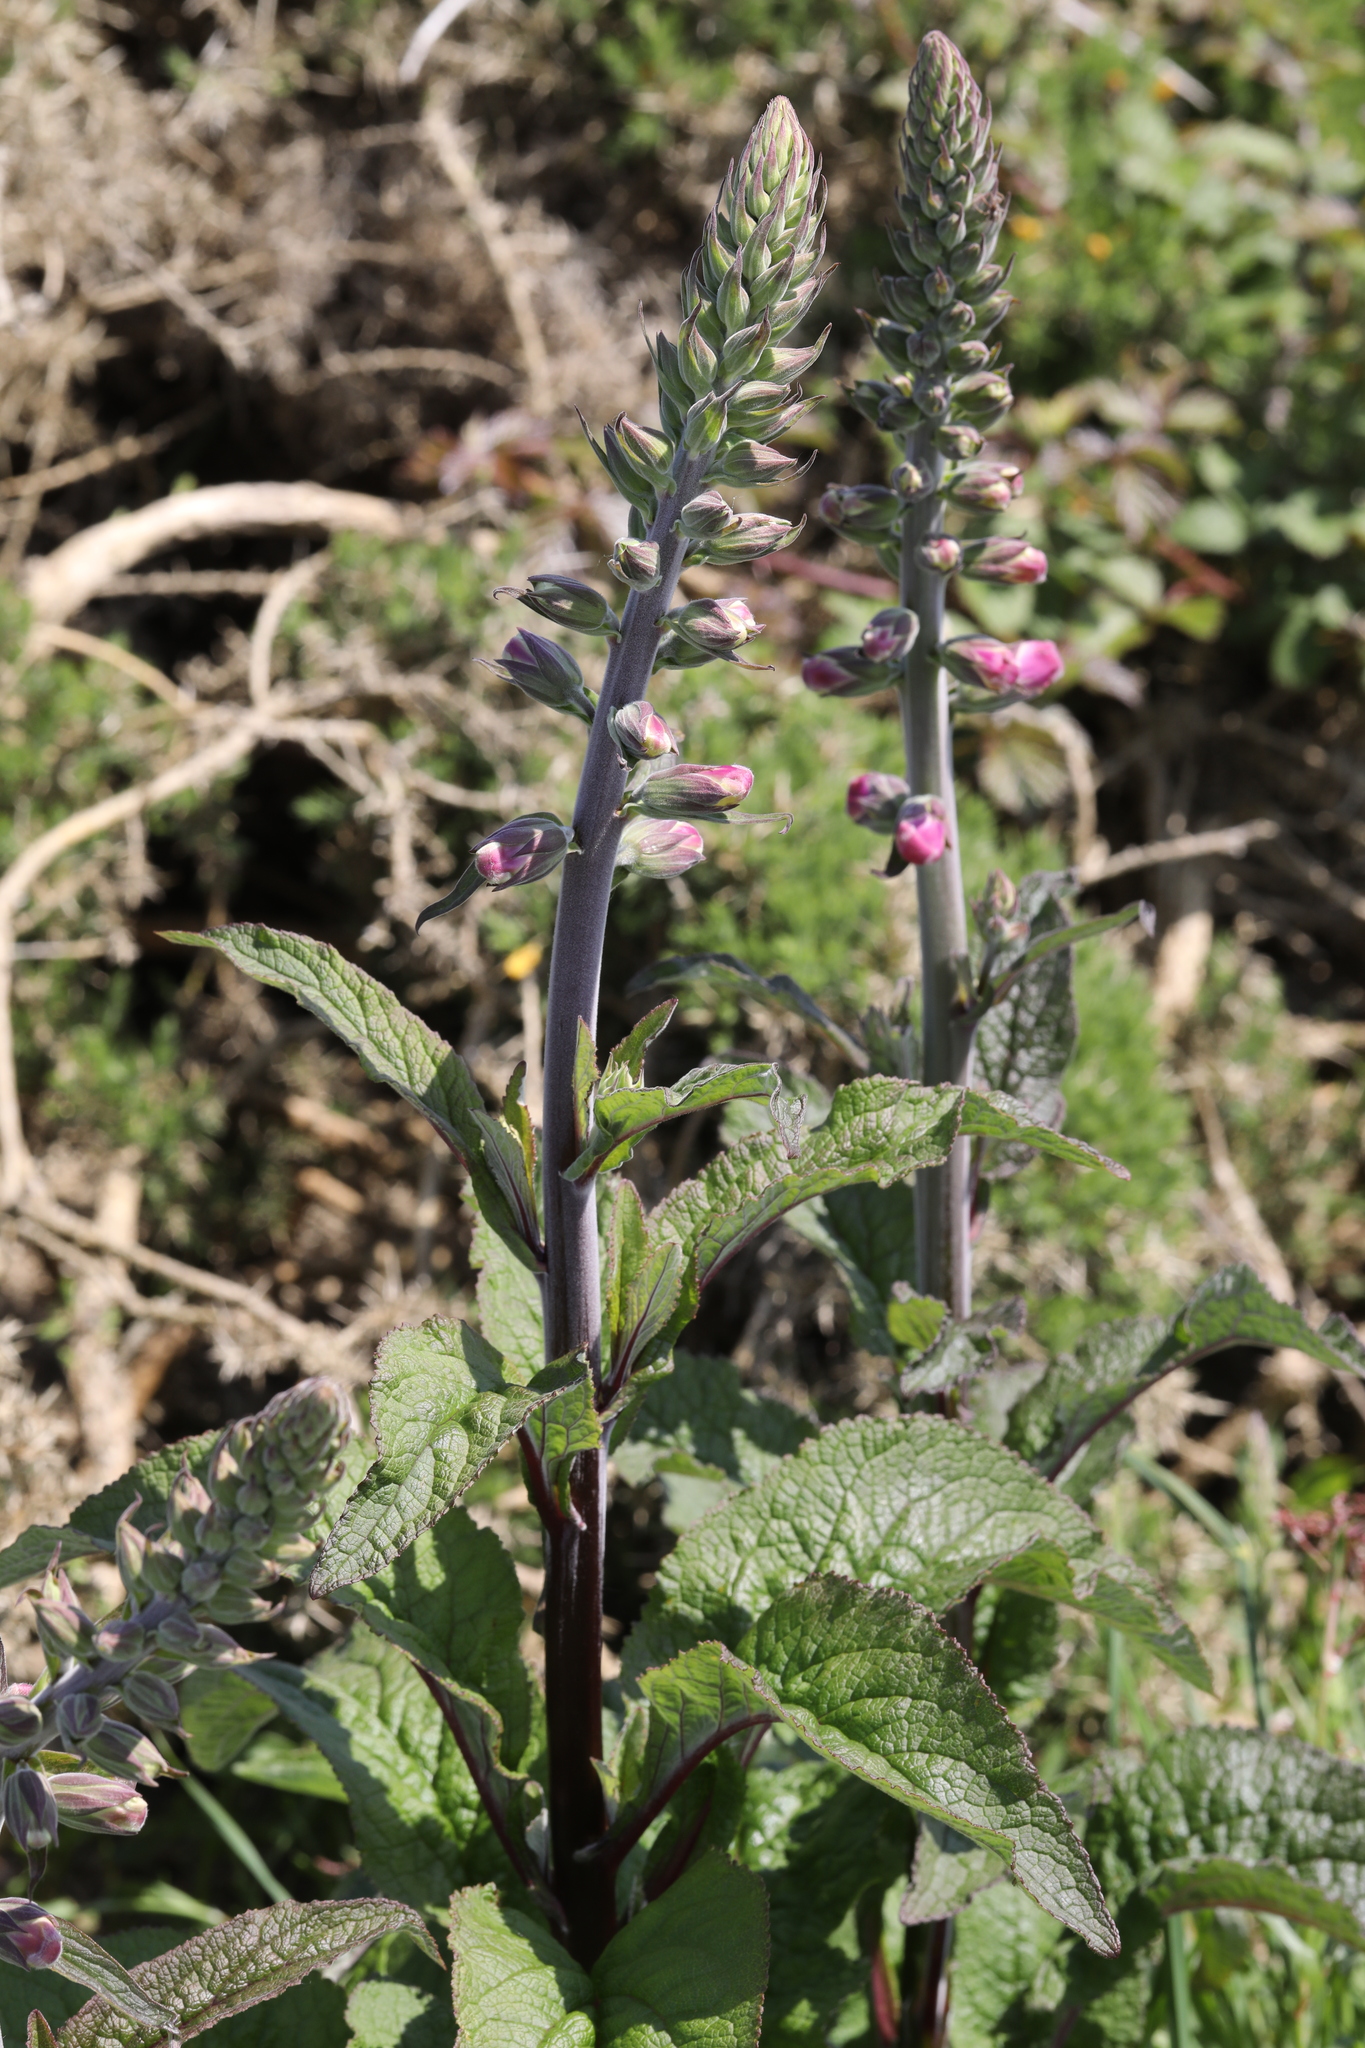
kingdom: Plantae
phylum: Tracheophyta
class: Magnoliopsida
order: Lamiales
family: Plantaginaceae
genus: Digitalis
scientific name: Digitalis purpurea
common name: Foxglove
